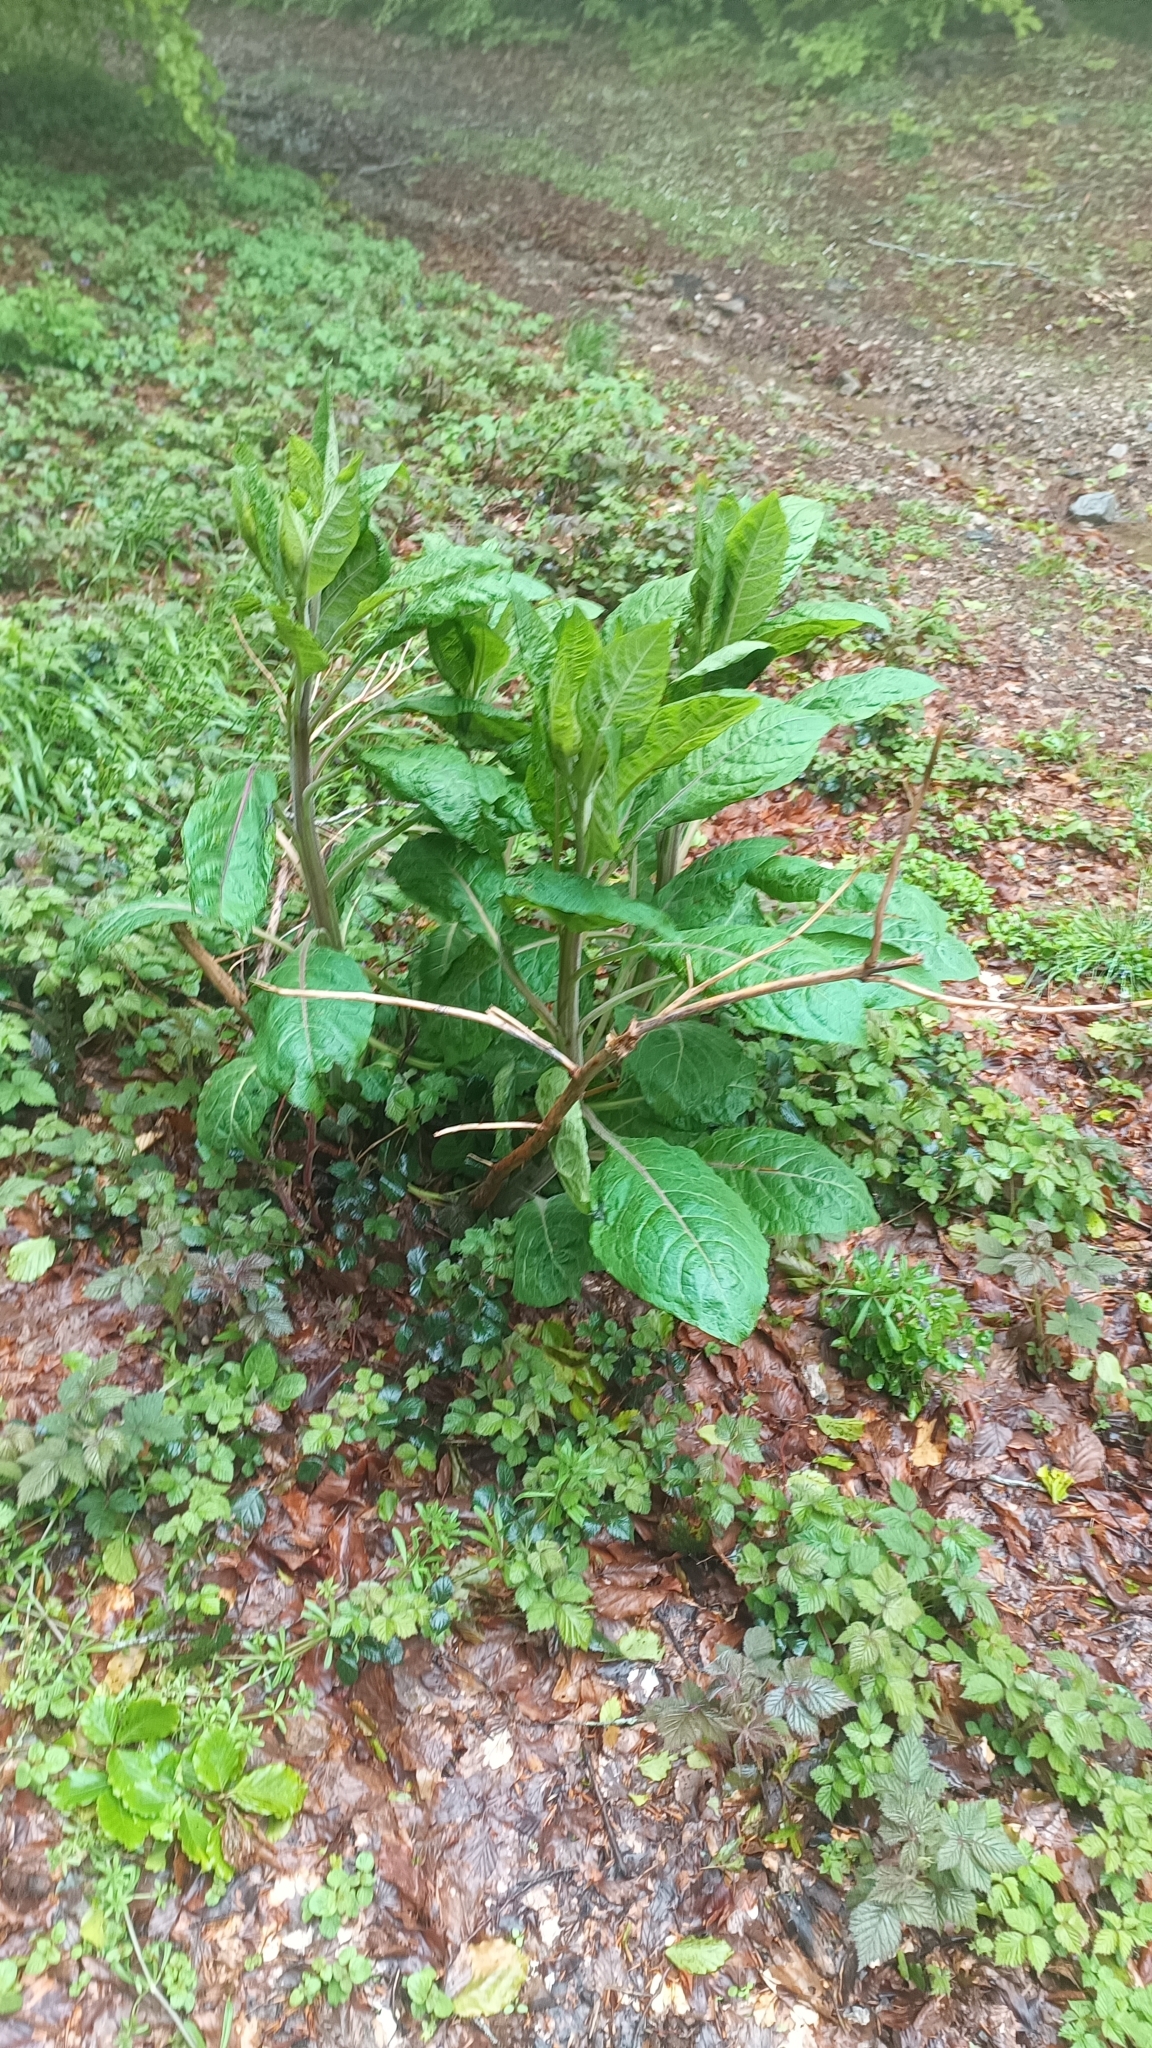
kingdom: Plantae
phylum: Tracheophyta
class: Magnoliopsida
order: Solanales
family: Solanaceae
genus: Atropa
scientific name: Atropa belladonna
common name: Deadly nightshade
